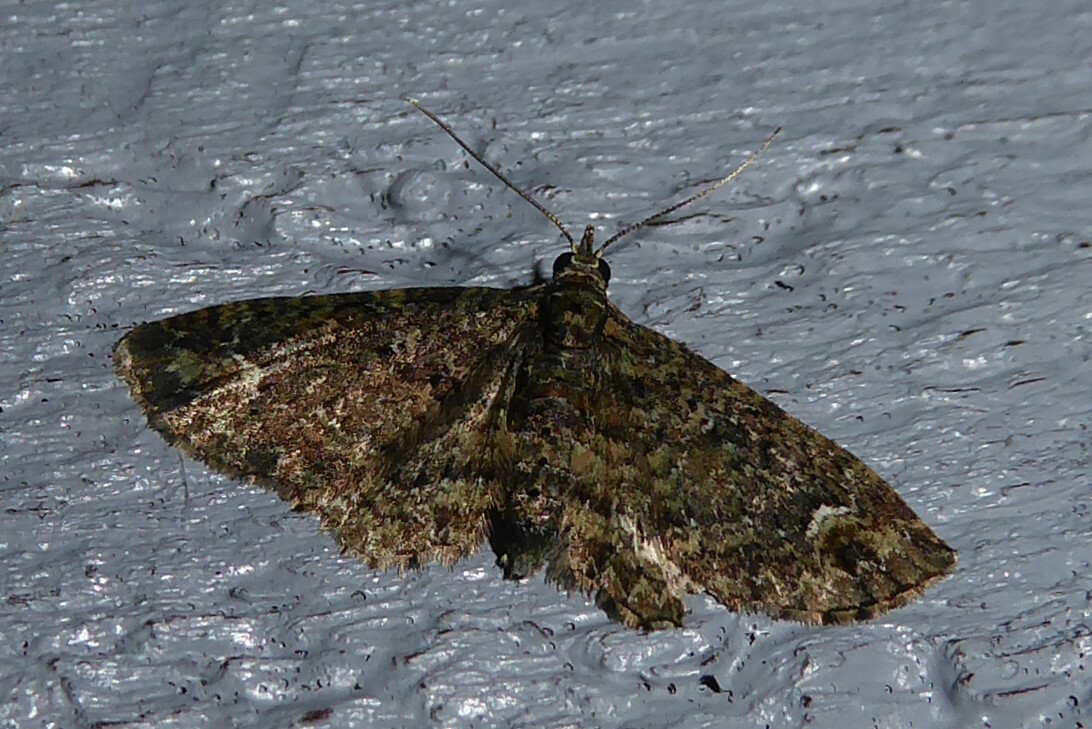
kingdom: Animalia
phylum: Arthropoda
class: Insecta
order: Lepidoptera
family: Geometridae
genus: Pasiphilodes
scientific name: Pasiphilodes testulata
